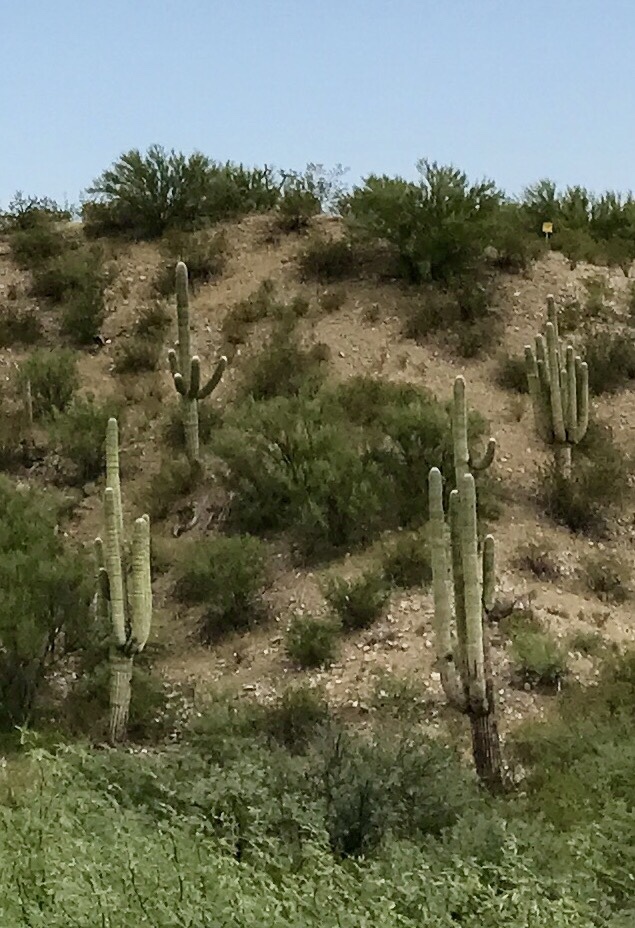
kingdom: Plantae
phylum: Tracheophyta
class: Magnoliopsida
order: Caryophyllales
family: Cactaceae
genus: Carnegiea
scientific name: Carnegiea gigantea
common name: Saguaro
